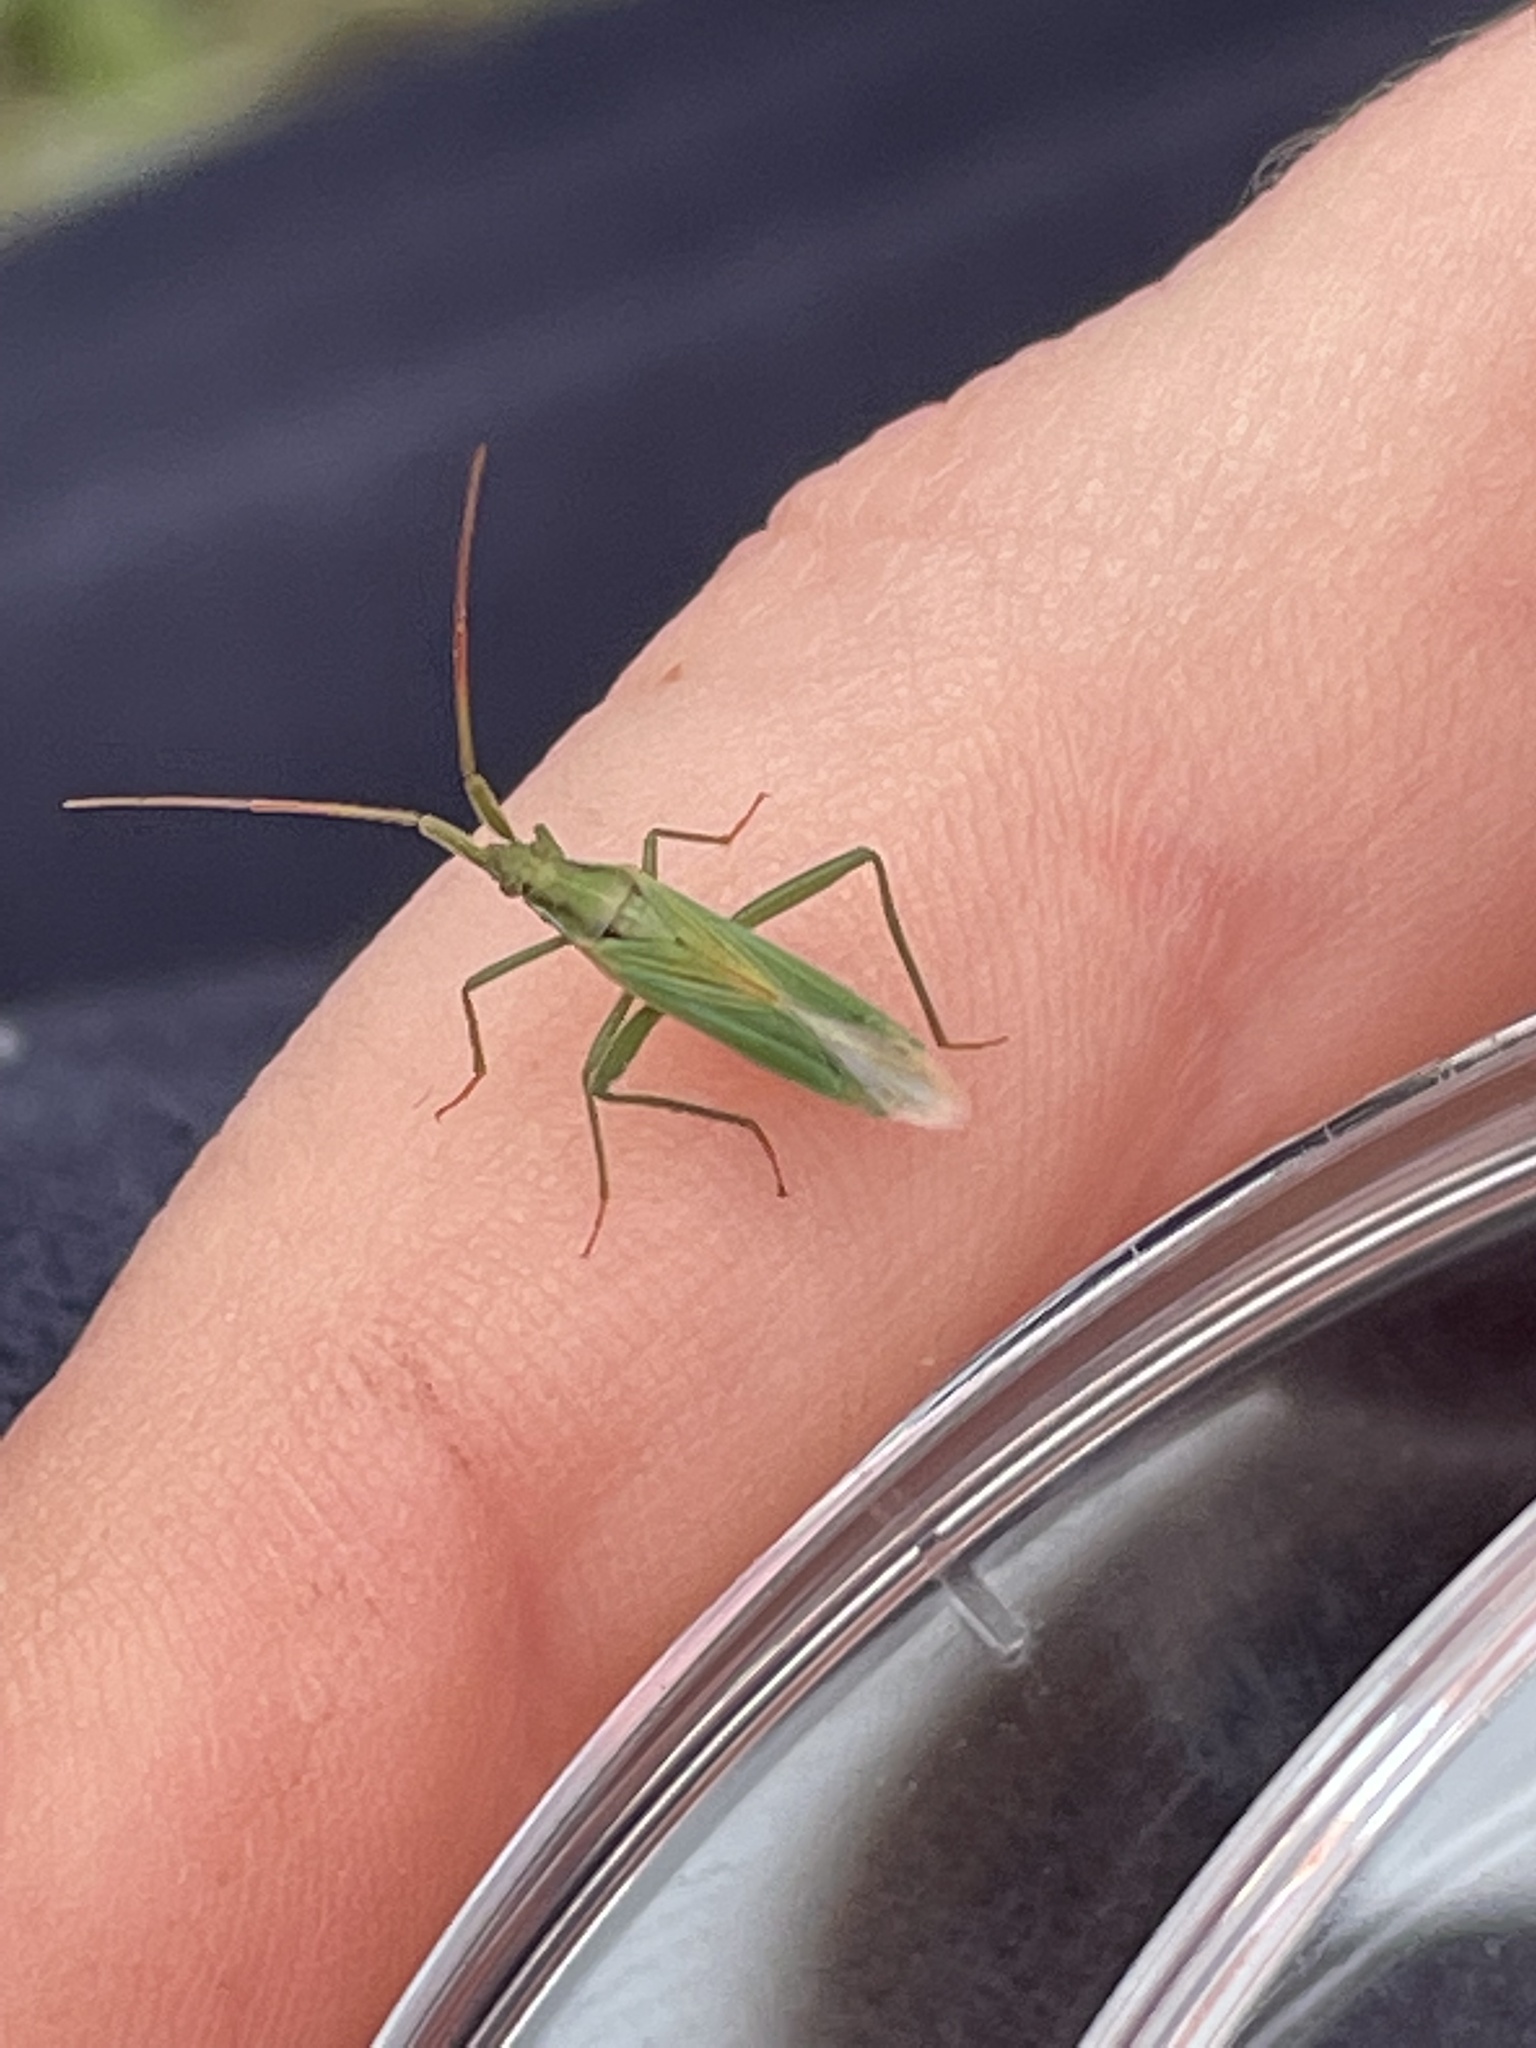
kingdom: Animalia
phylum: Arthropoda
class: Insecta
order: Hemiptera
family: Miridae
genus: Stenodema
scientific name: Stenodema laevigata
